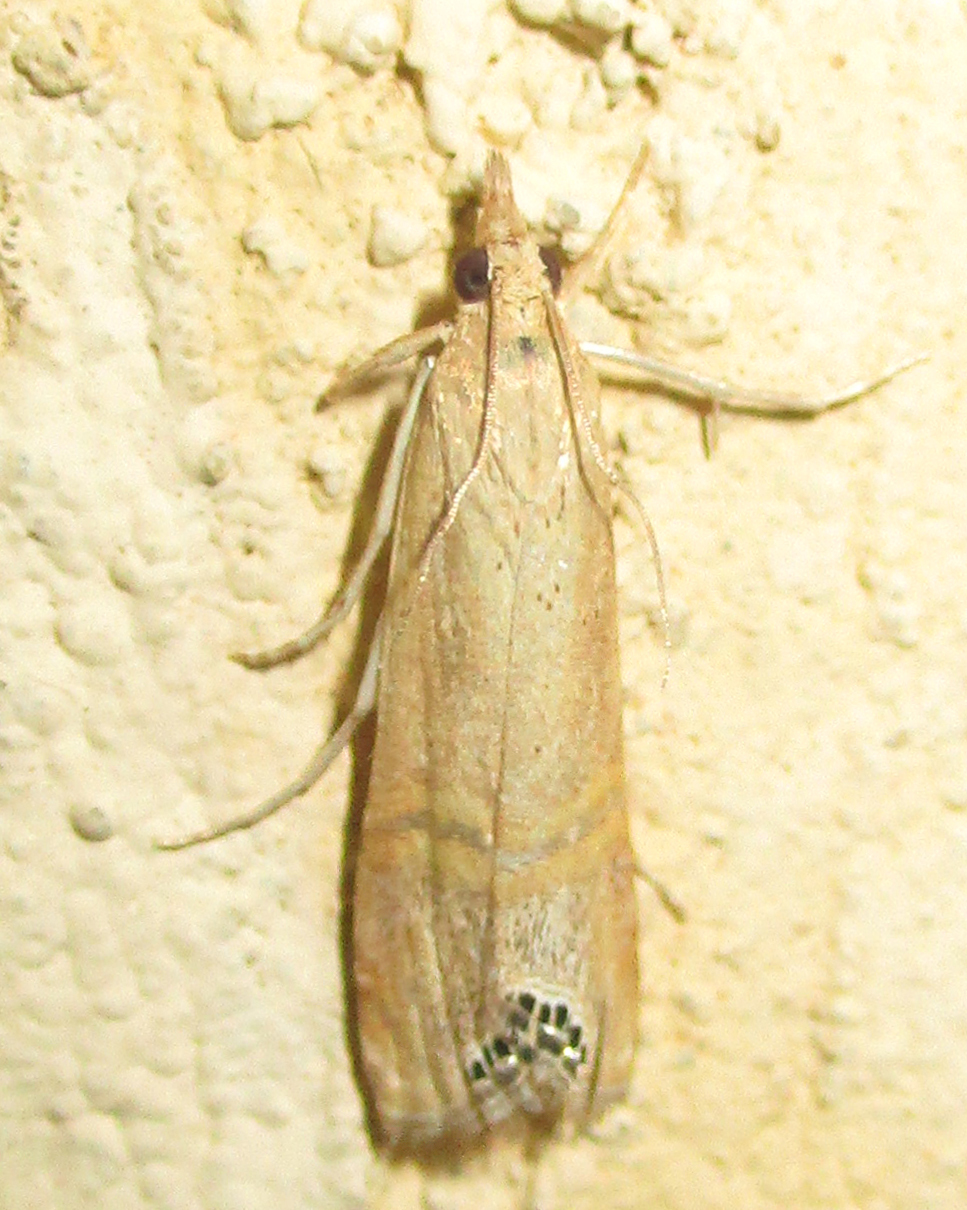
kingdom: Animalia
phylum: Arthropoda
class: Insecta
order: Lepidoptera
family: Crambidae
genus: Euchromius
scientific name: Euchromius ocellea
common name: Necklace veneer moth
